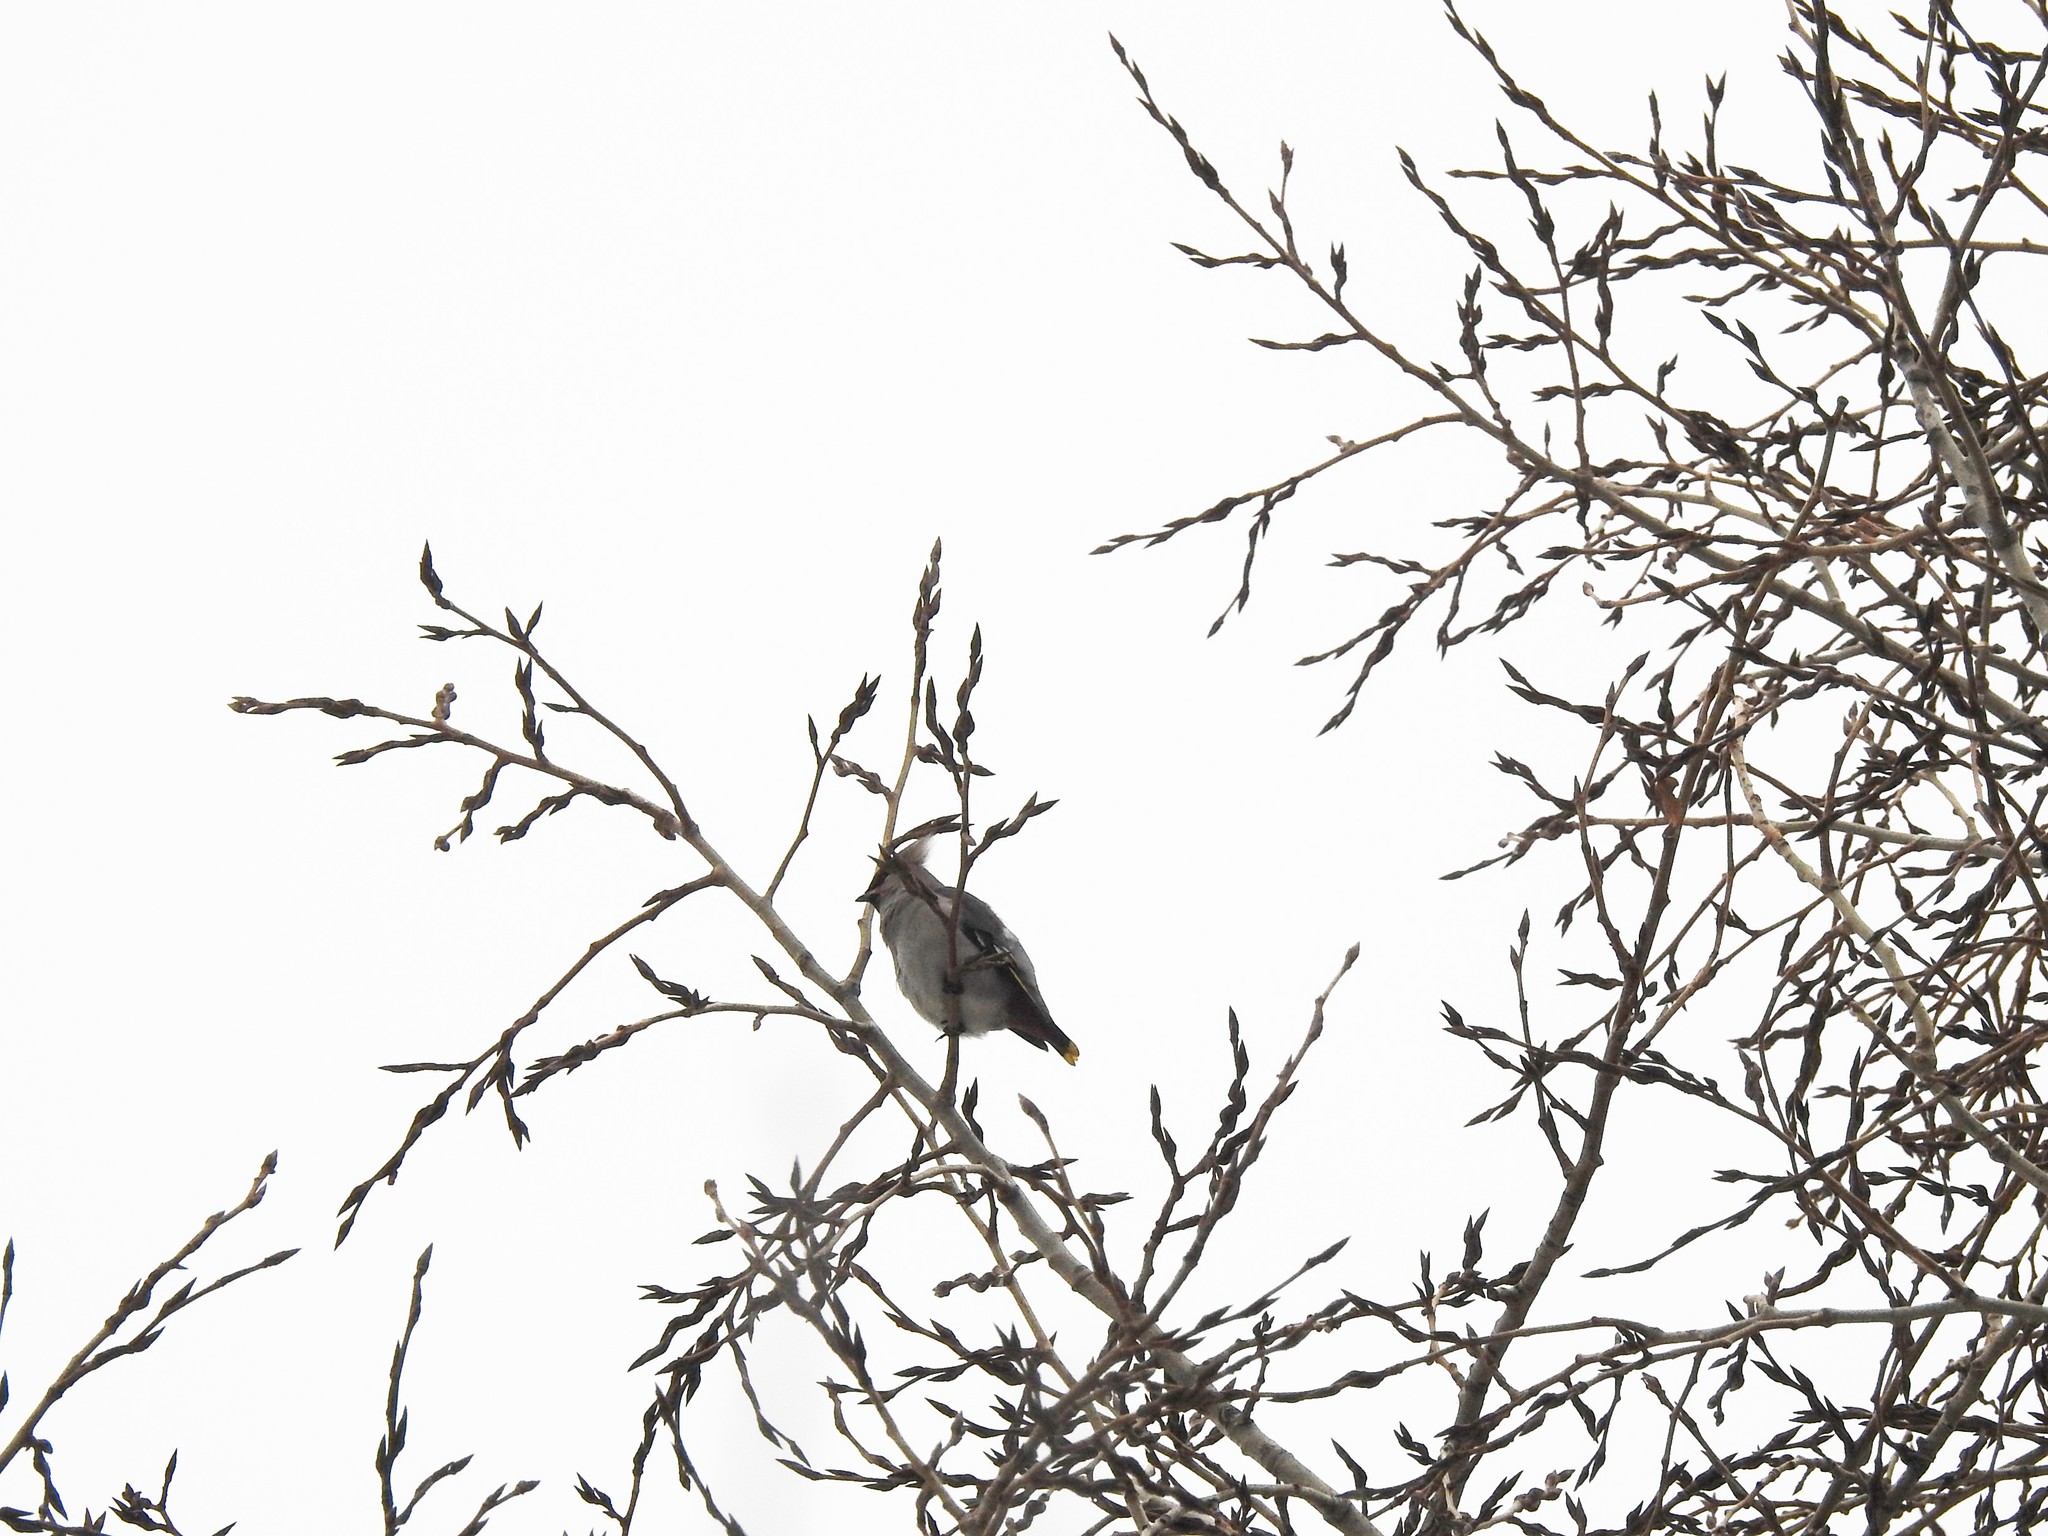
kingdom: Animalia
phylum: Chordata
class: Aves
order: Passeriformes
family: Bombycillidae
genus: Bombycilla
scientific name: Bombycilla garrulus
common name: Bohemian waxwing
